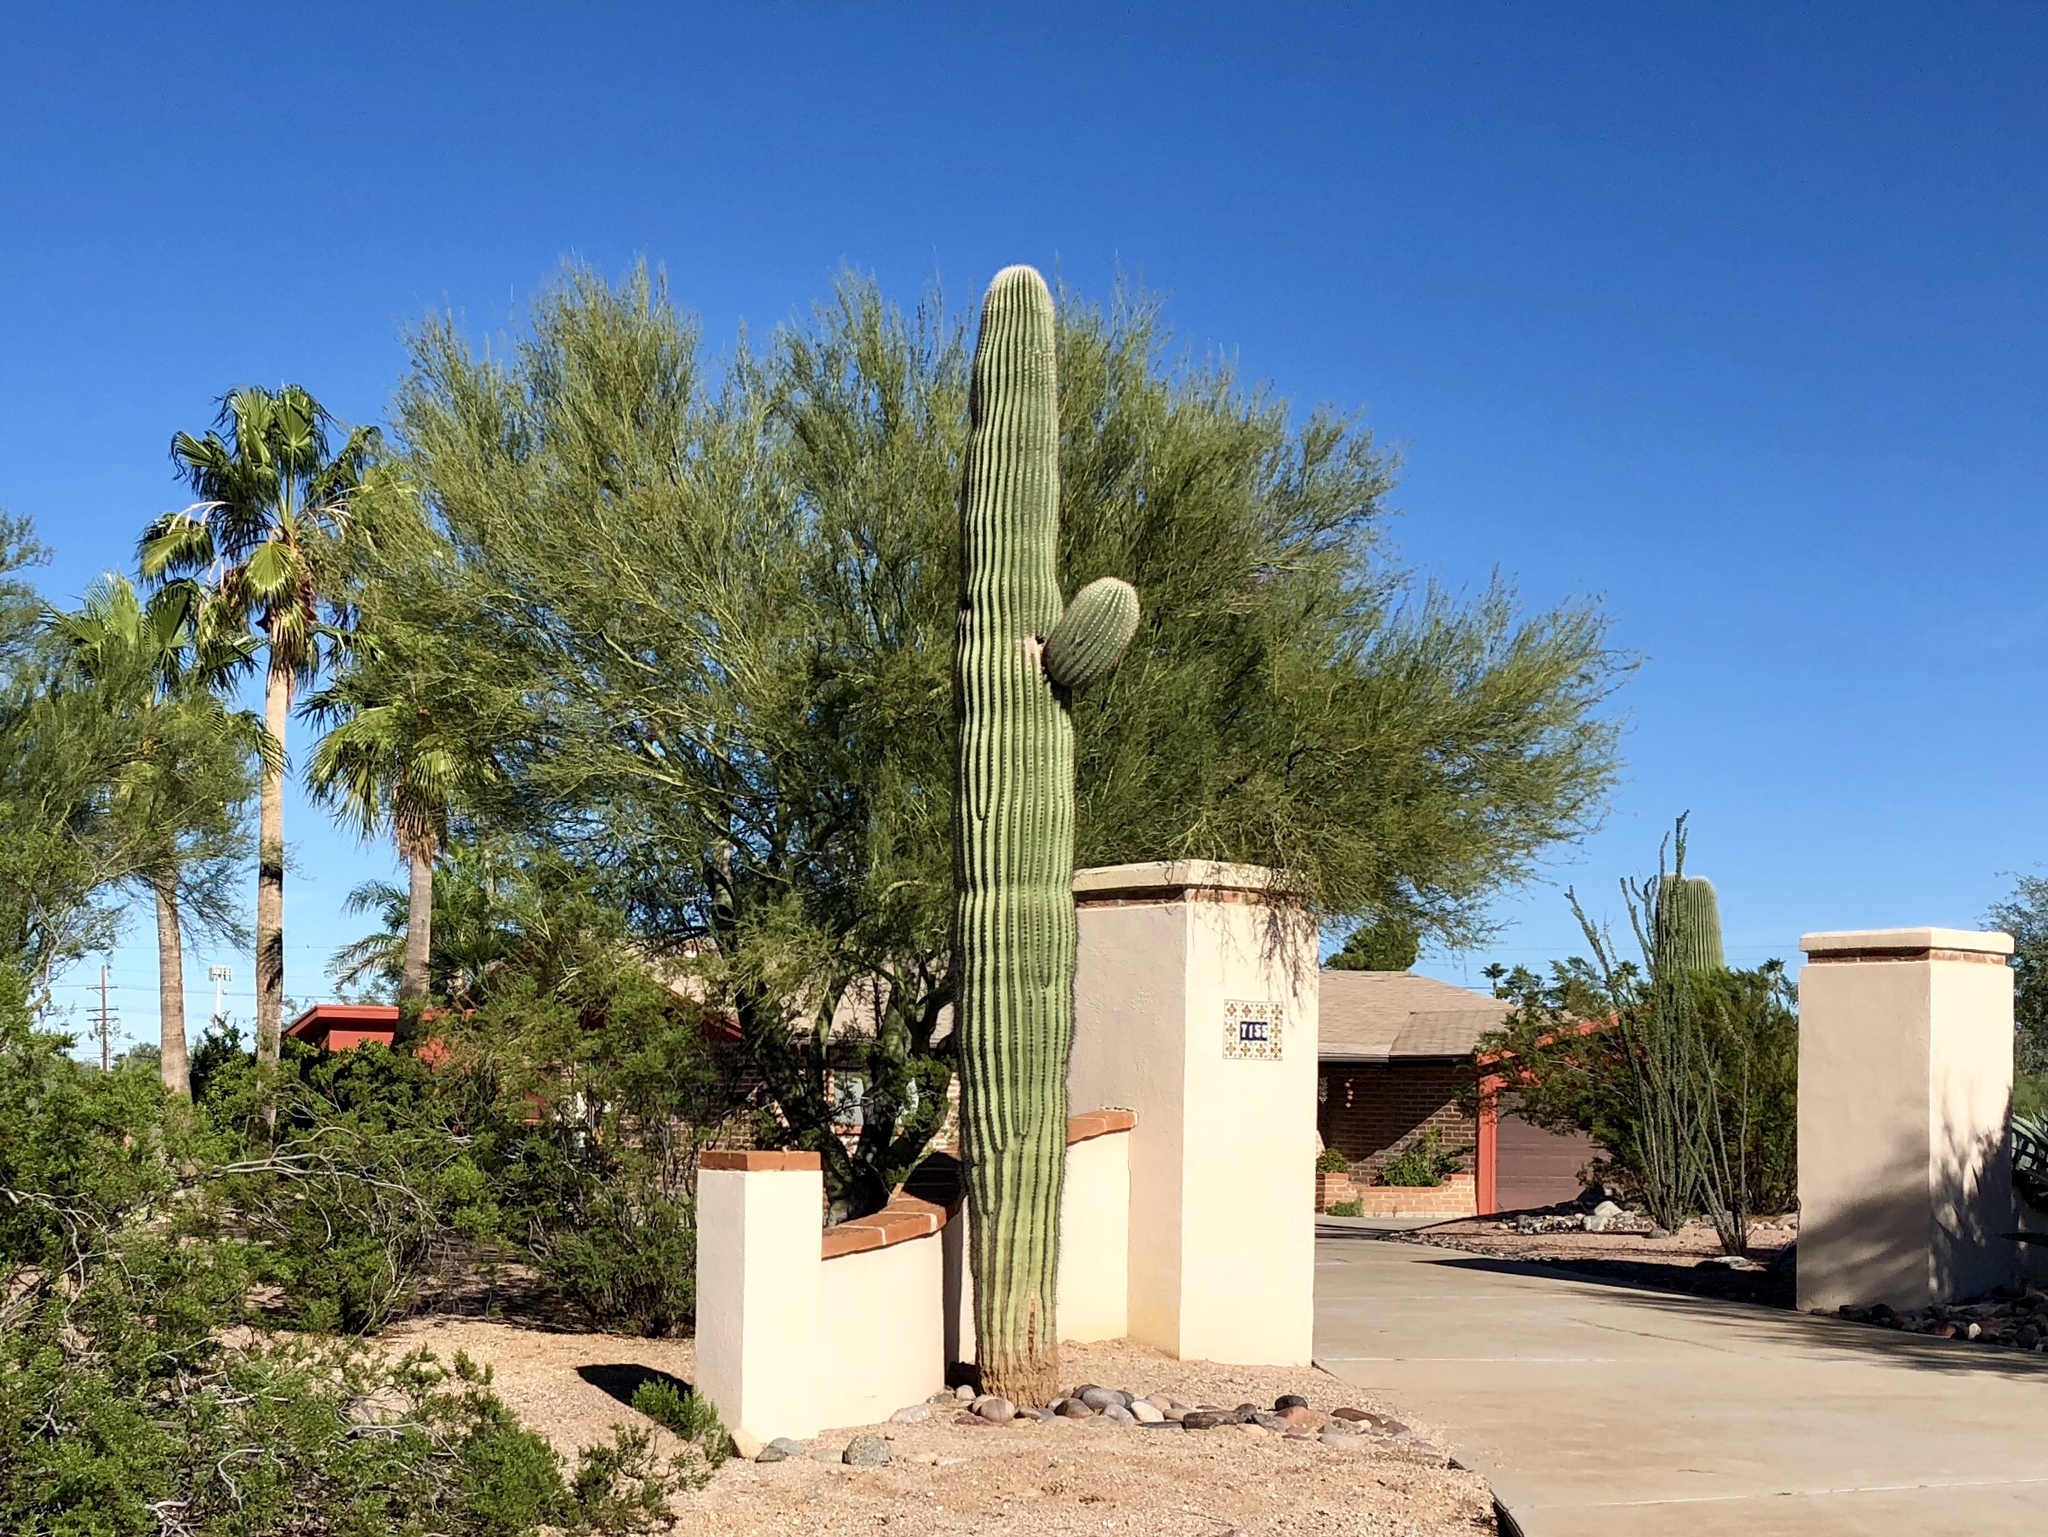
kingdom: Plantae
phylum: Tracheophyta
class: Magnoliopsida
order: Caryophyllales
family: Cactaceae
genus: Carnegiea
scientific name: Carnegiea gigantea
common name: Saguaro
